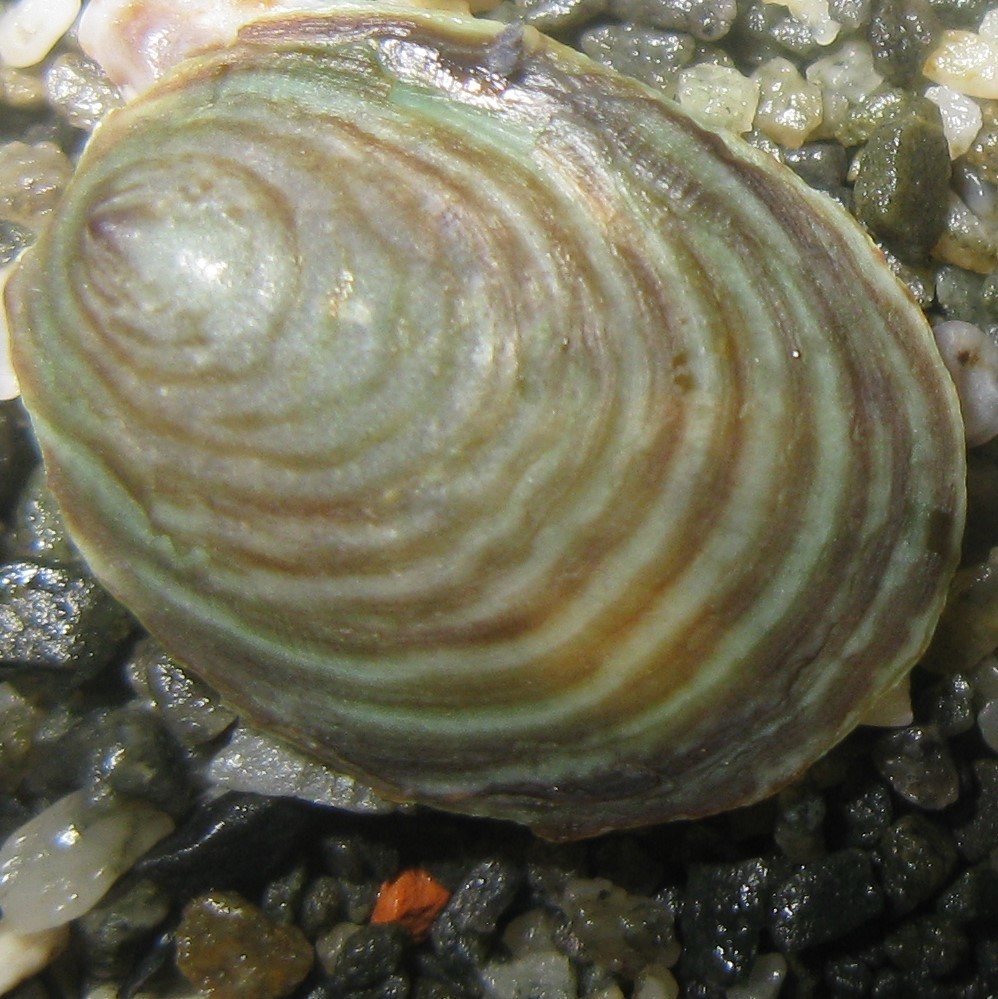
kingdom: Animalia
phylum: Mollusca
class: Gastropoda
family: Lottiidae
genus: Atalacmea
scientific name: Atalacmea fragilis
